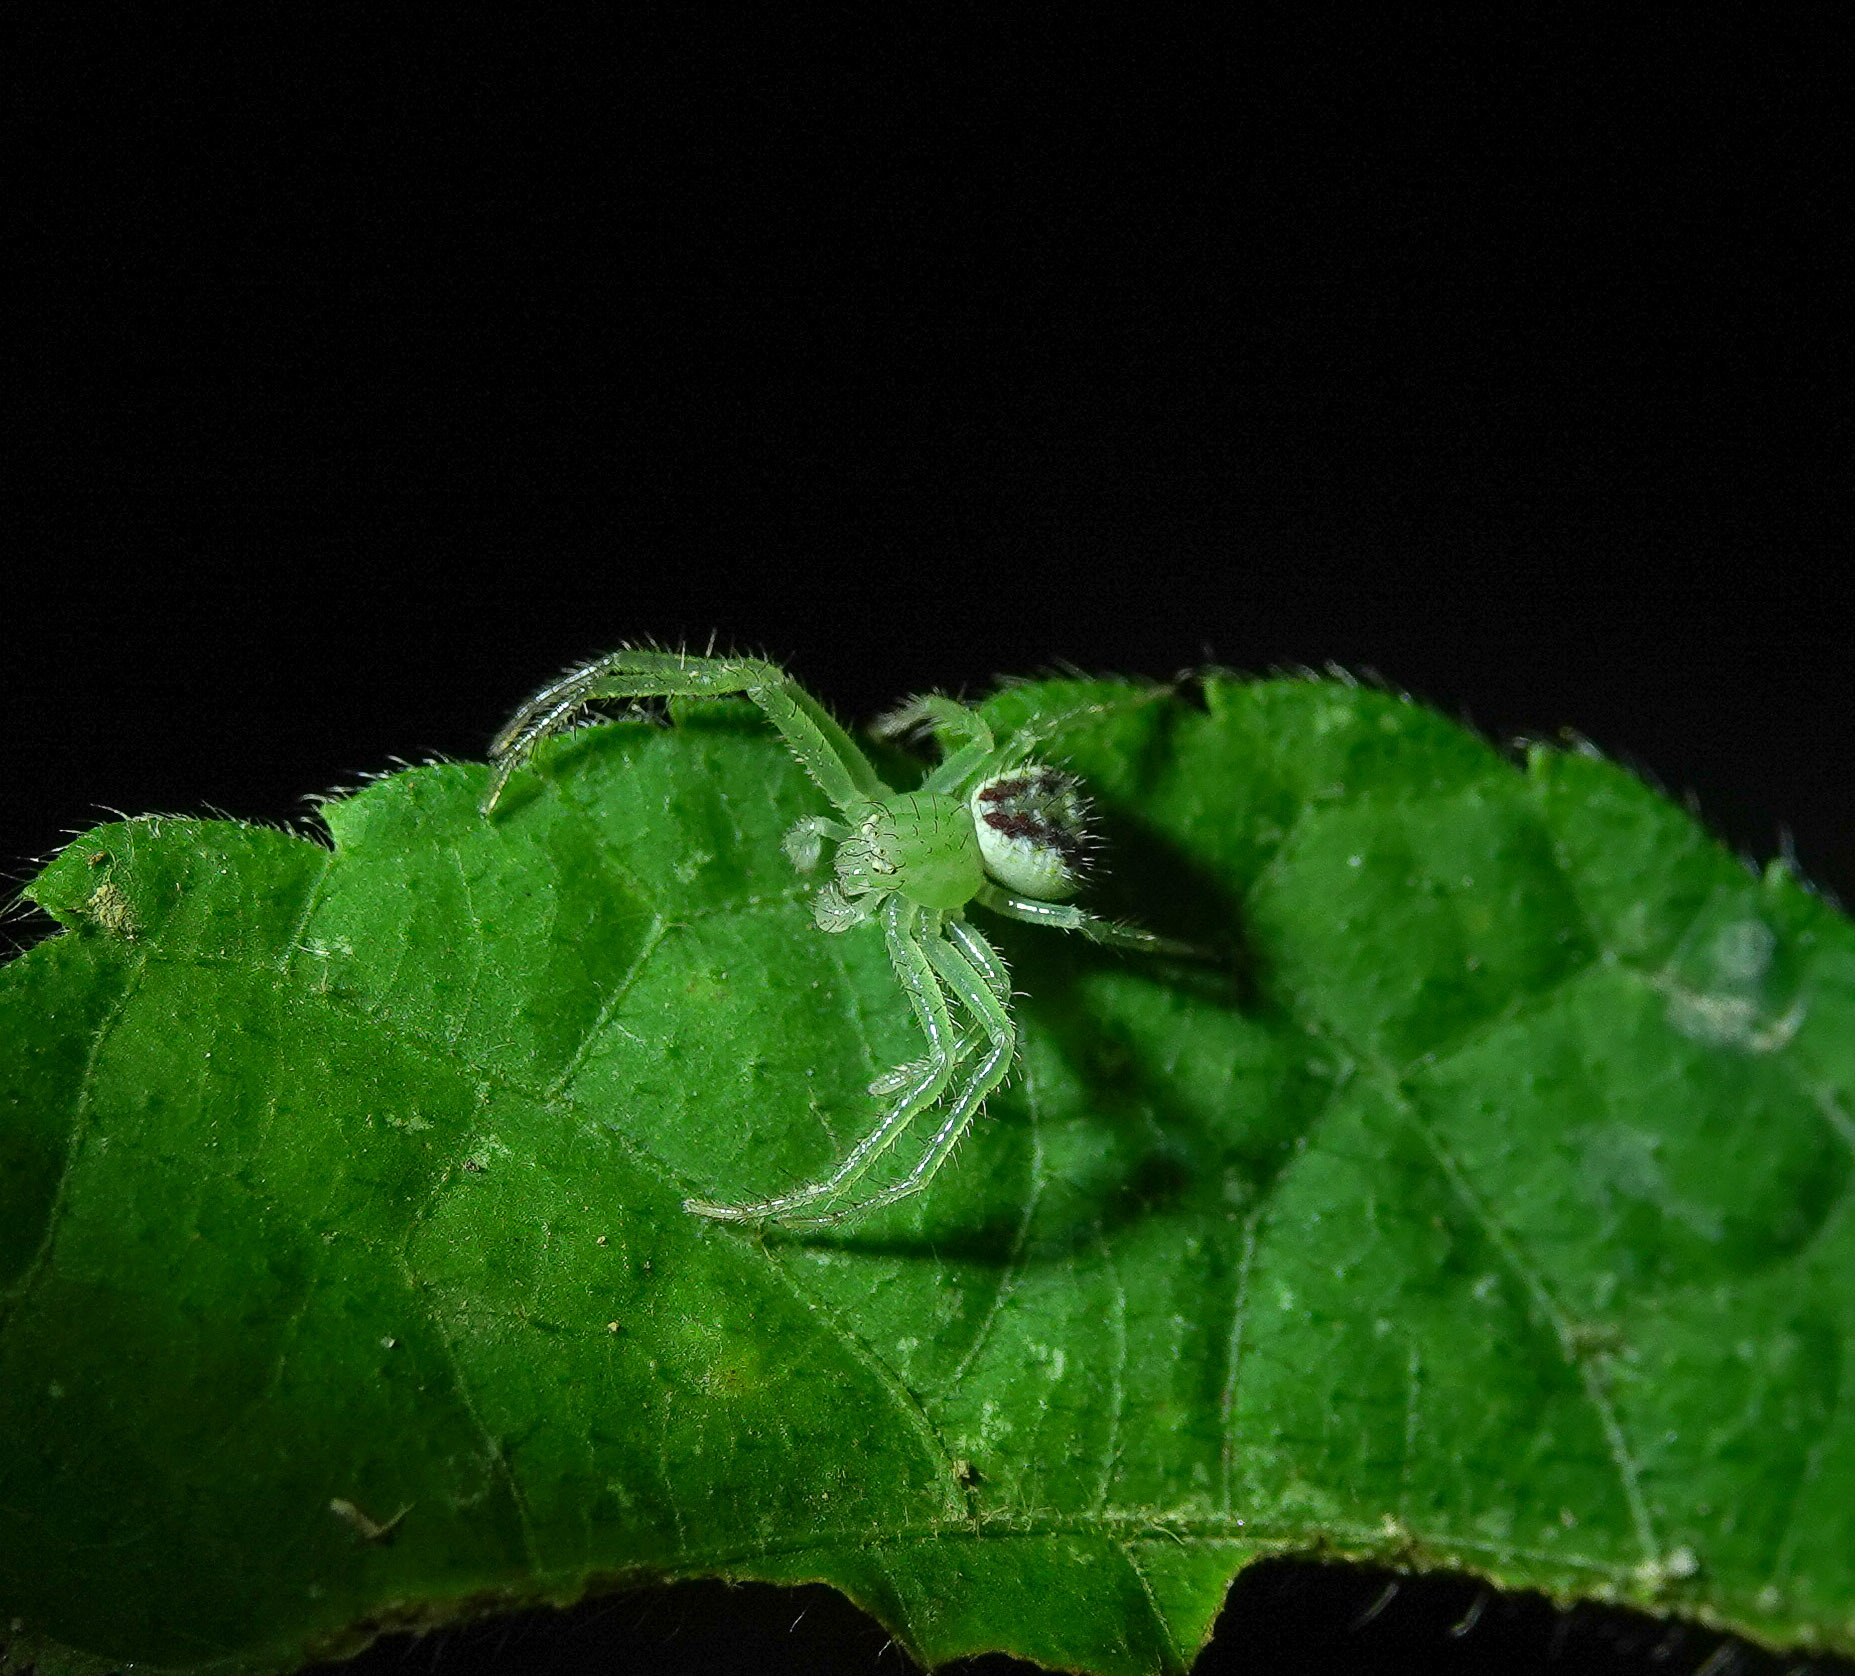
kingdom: Animalia
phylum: Arthropoda
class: Arachnida
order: Araneae
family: Thomisidae
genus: Diaea
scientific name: Diaea subdola
